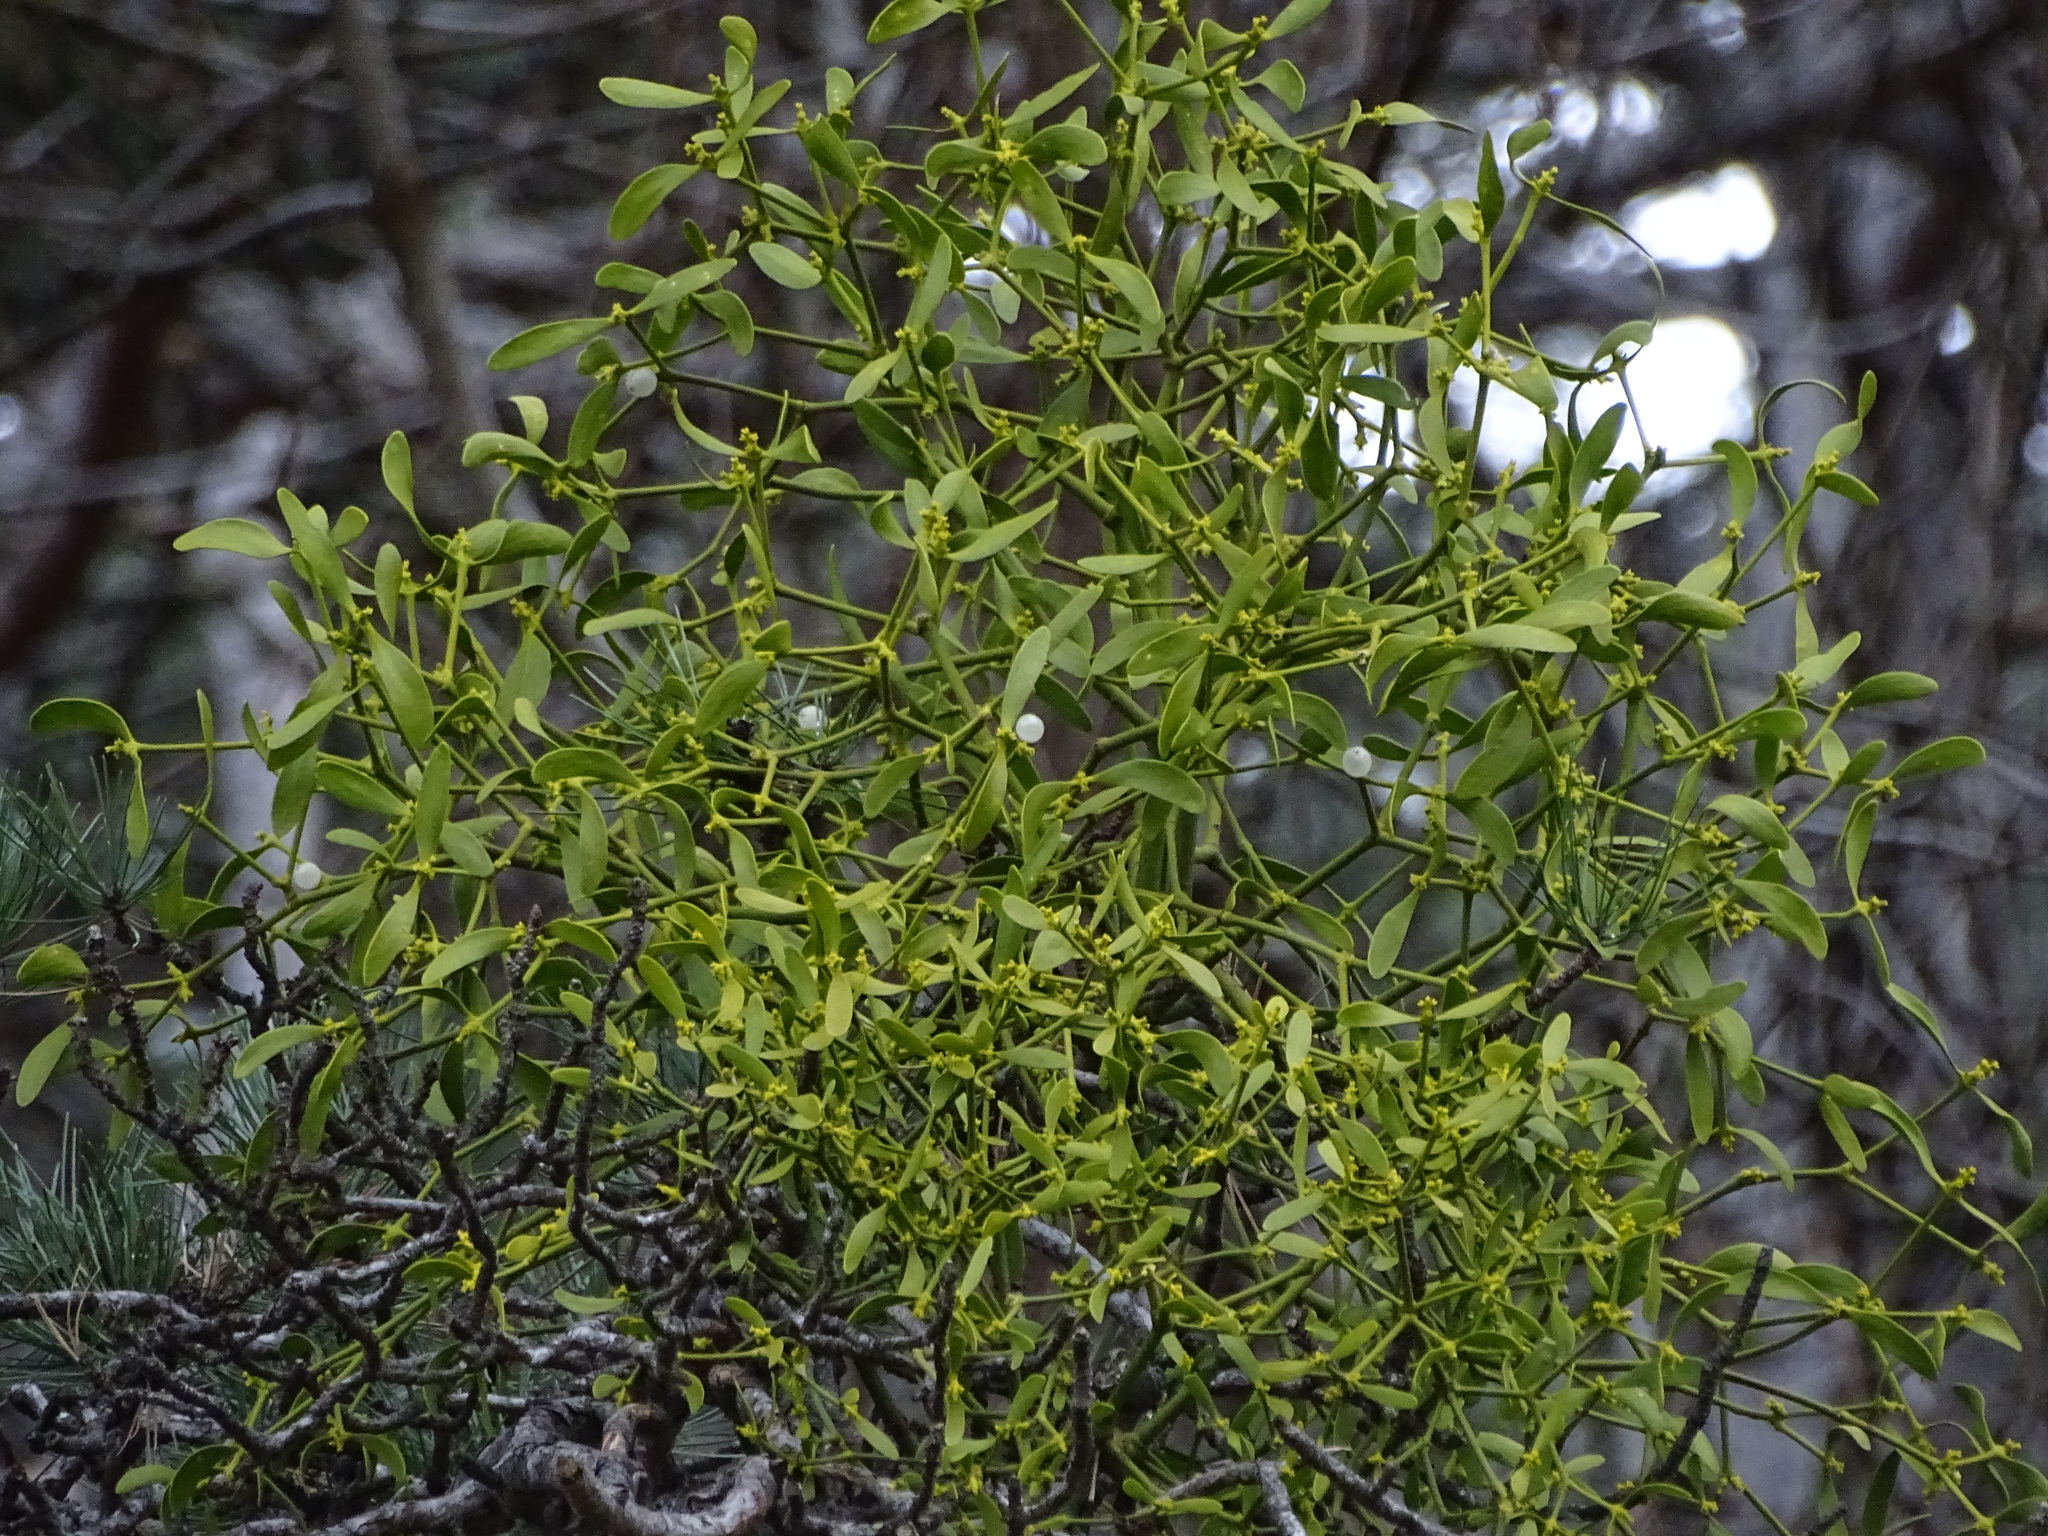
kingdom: Plantae
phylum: Tracheophyta
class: Magnoliopsida
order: Santalales
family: Viscaceae
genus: Viscum
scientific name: Viscum laxum
